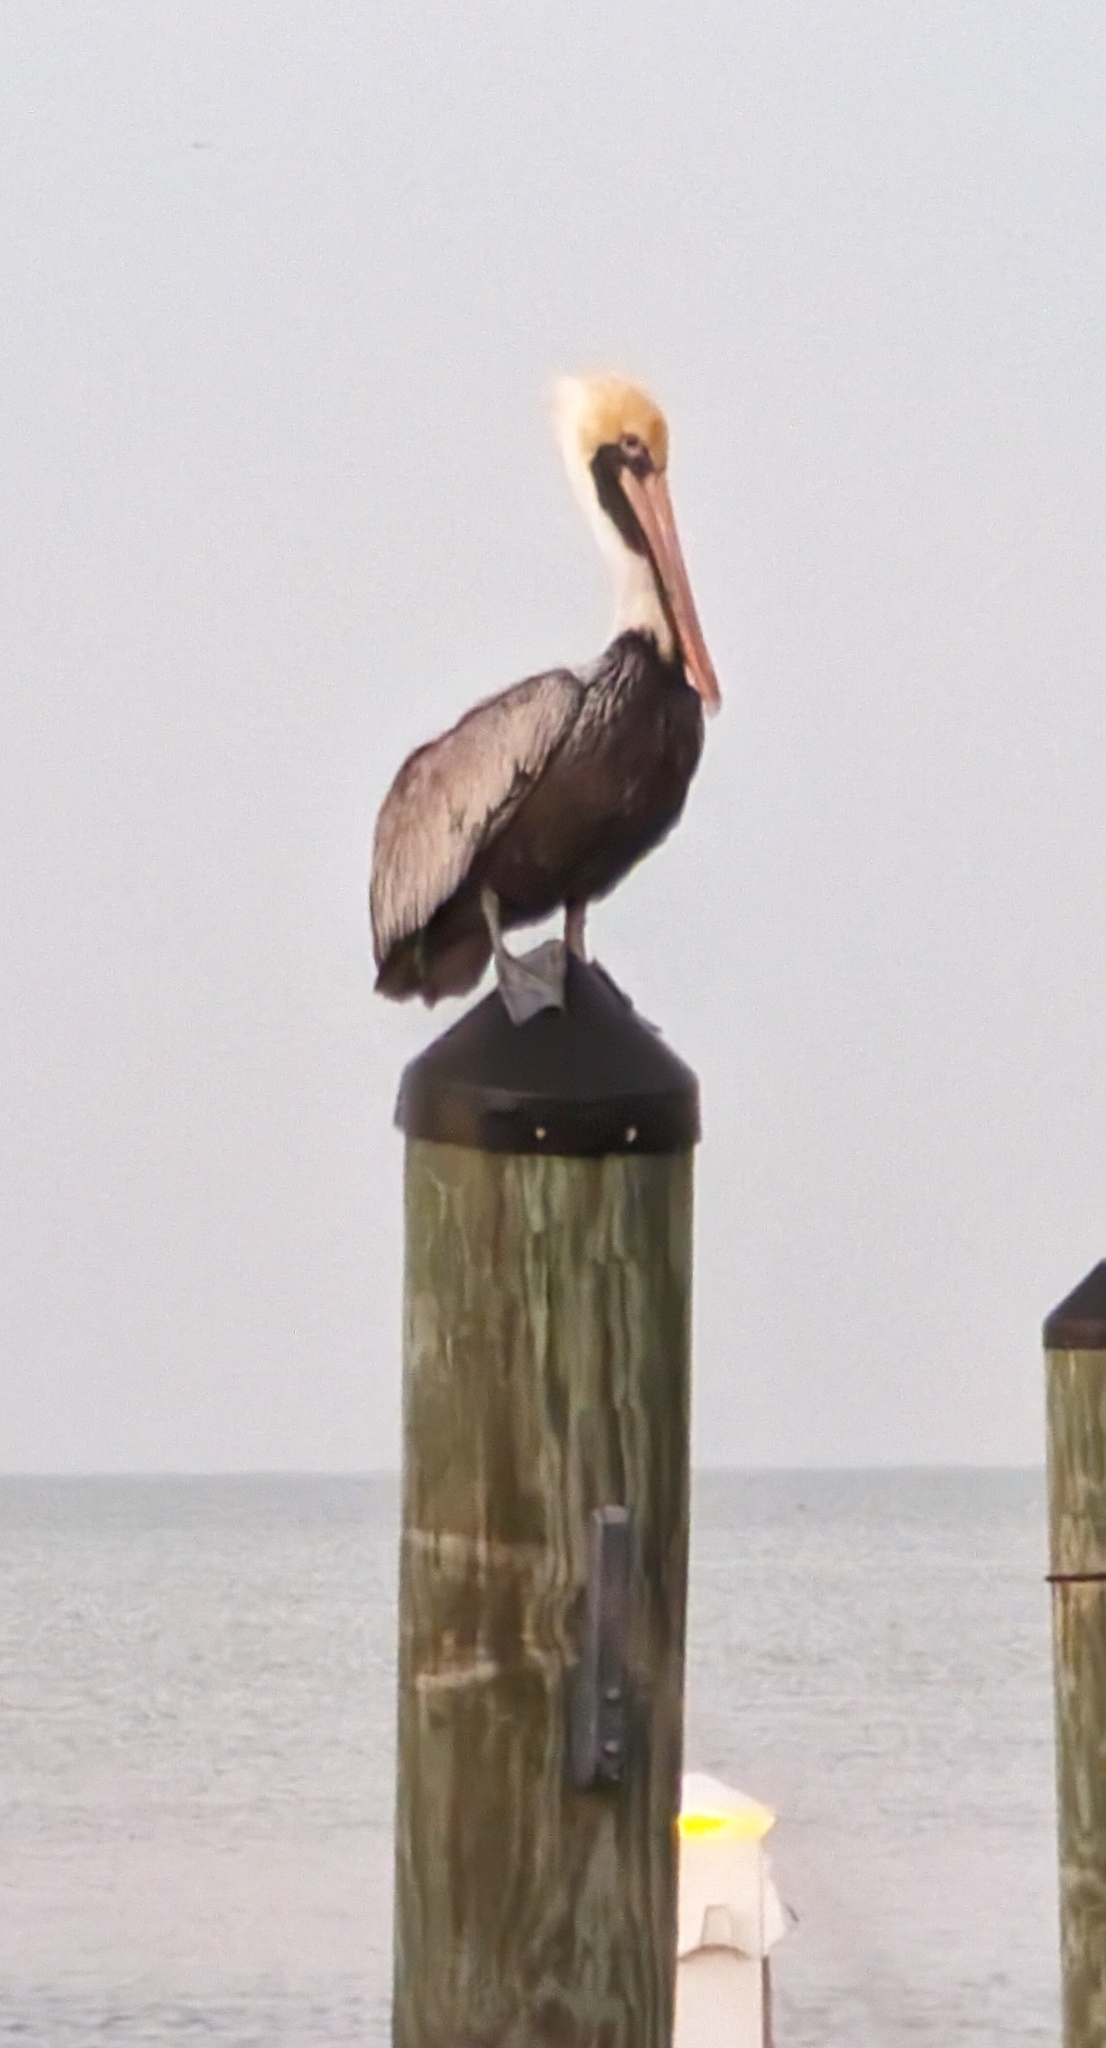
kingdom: Animalia
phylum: Chordata
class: Aves
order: Pelecaniformes
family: Pelecanidae
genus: Pelecanus
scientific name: Pelecanus occidentalis
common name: Brown pelican
